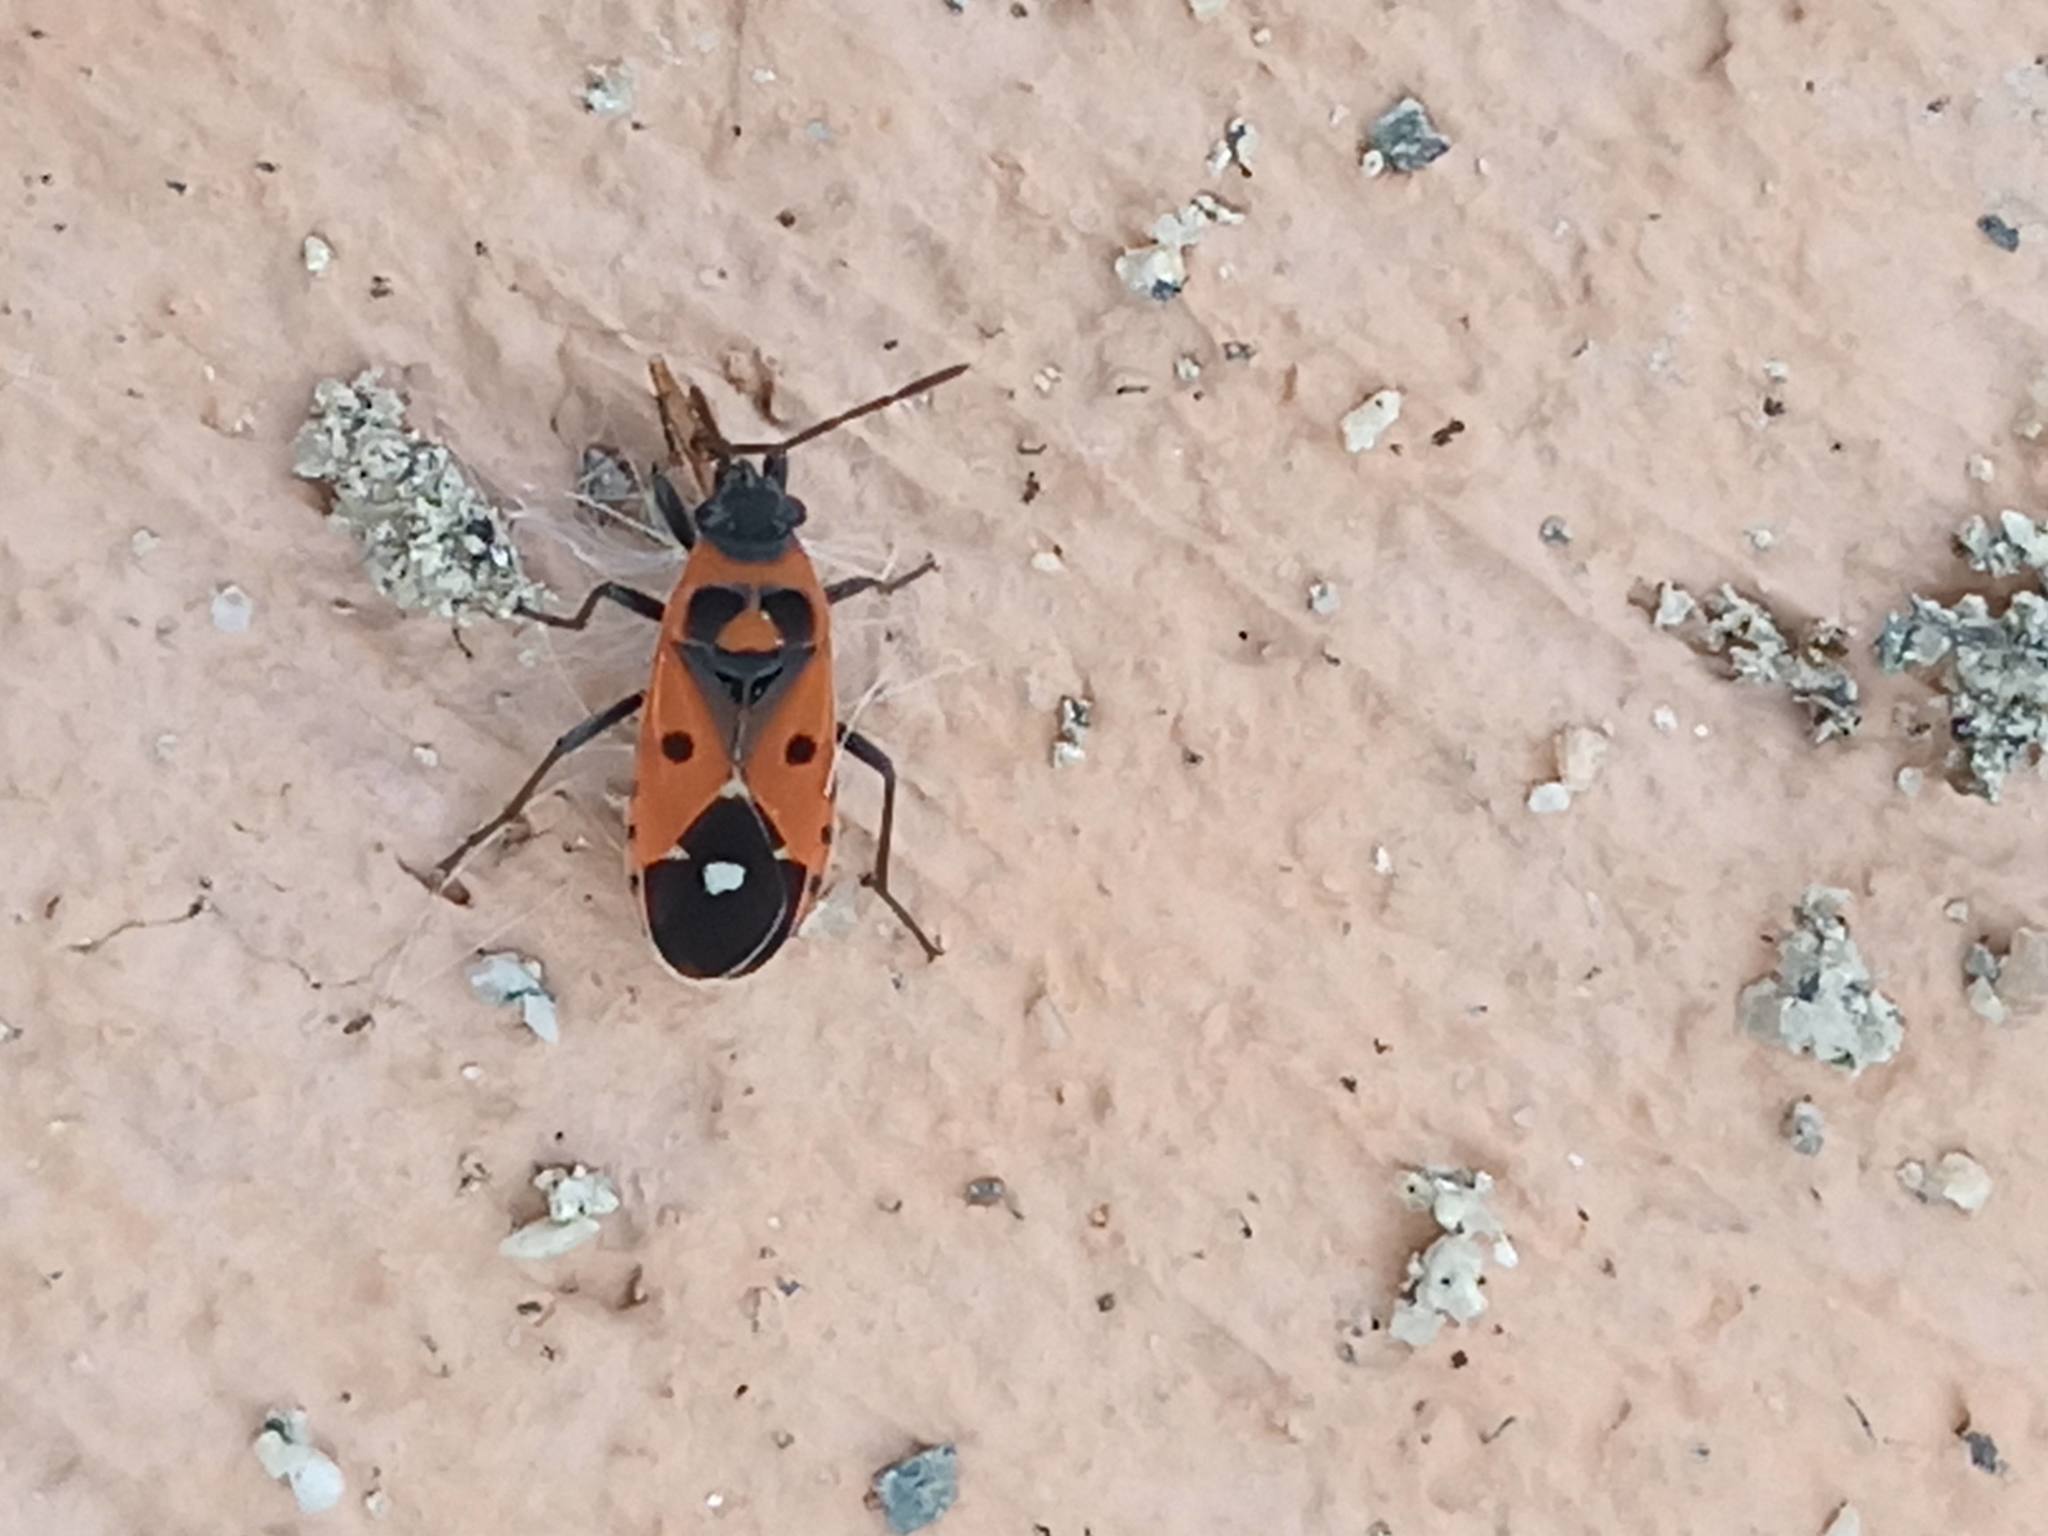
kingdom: Animalia
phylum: Arthropoda
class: Insecta
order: Hemiptera
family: Lygaeidae
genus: Melanocoryphus
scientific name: Melanocoryphus albomaculatus
